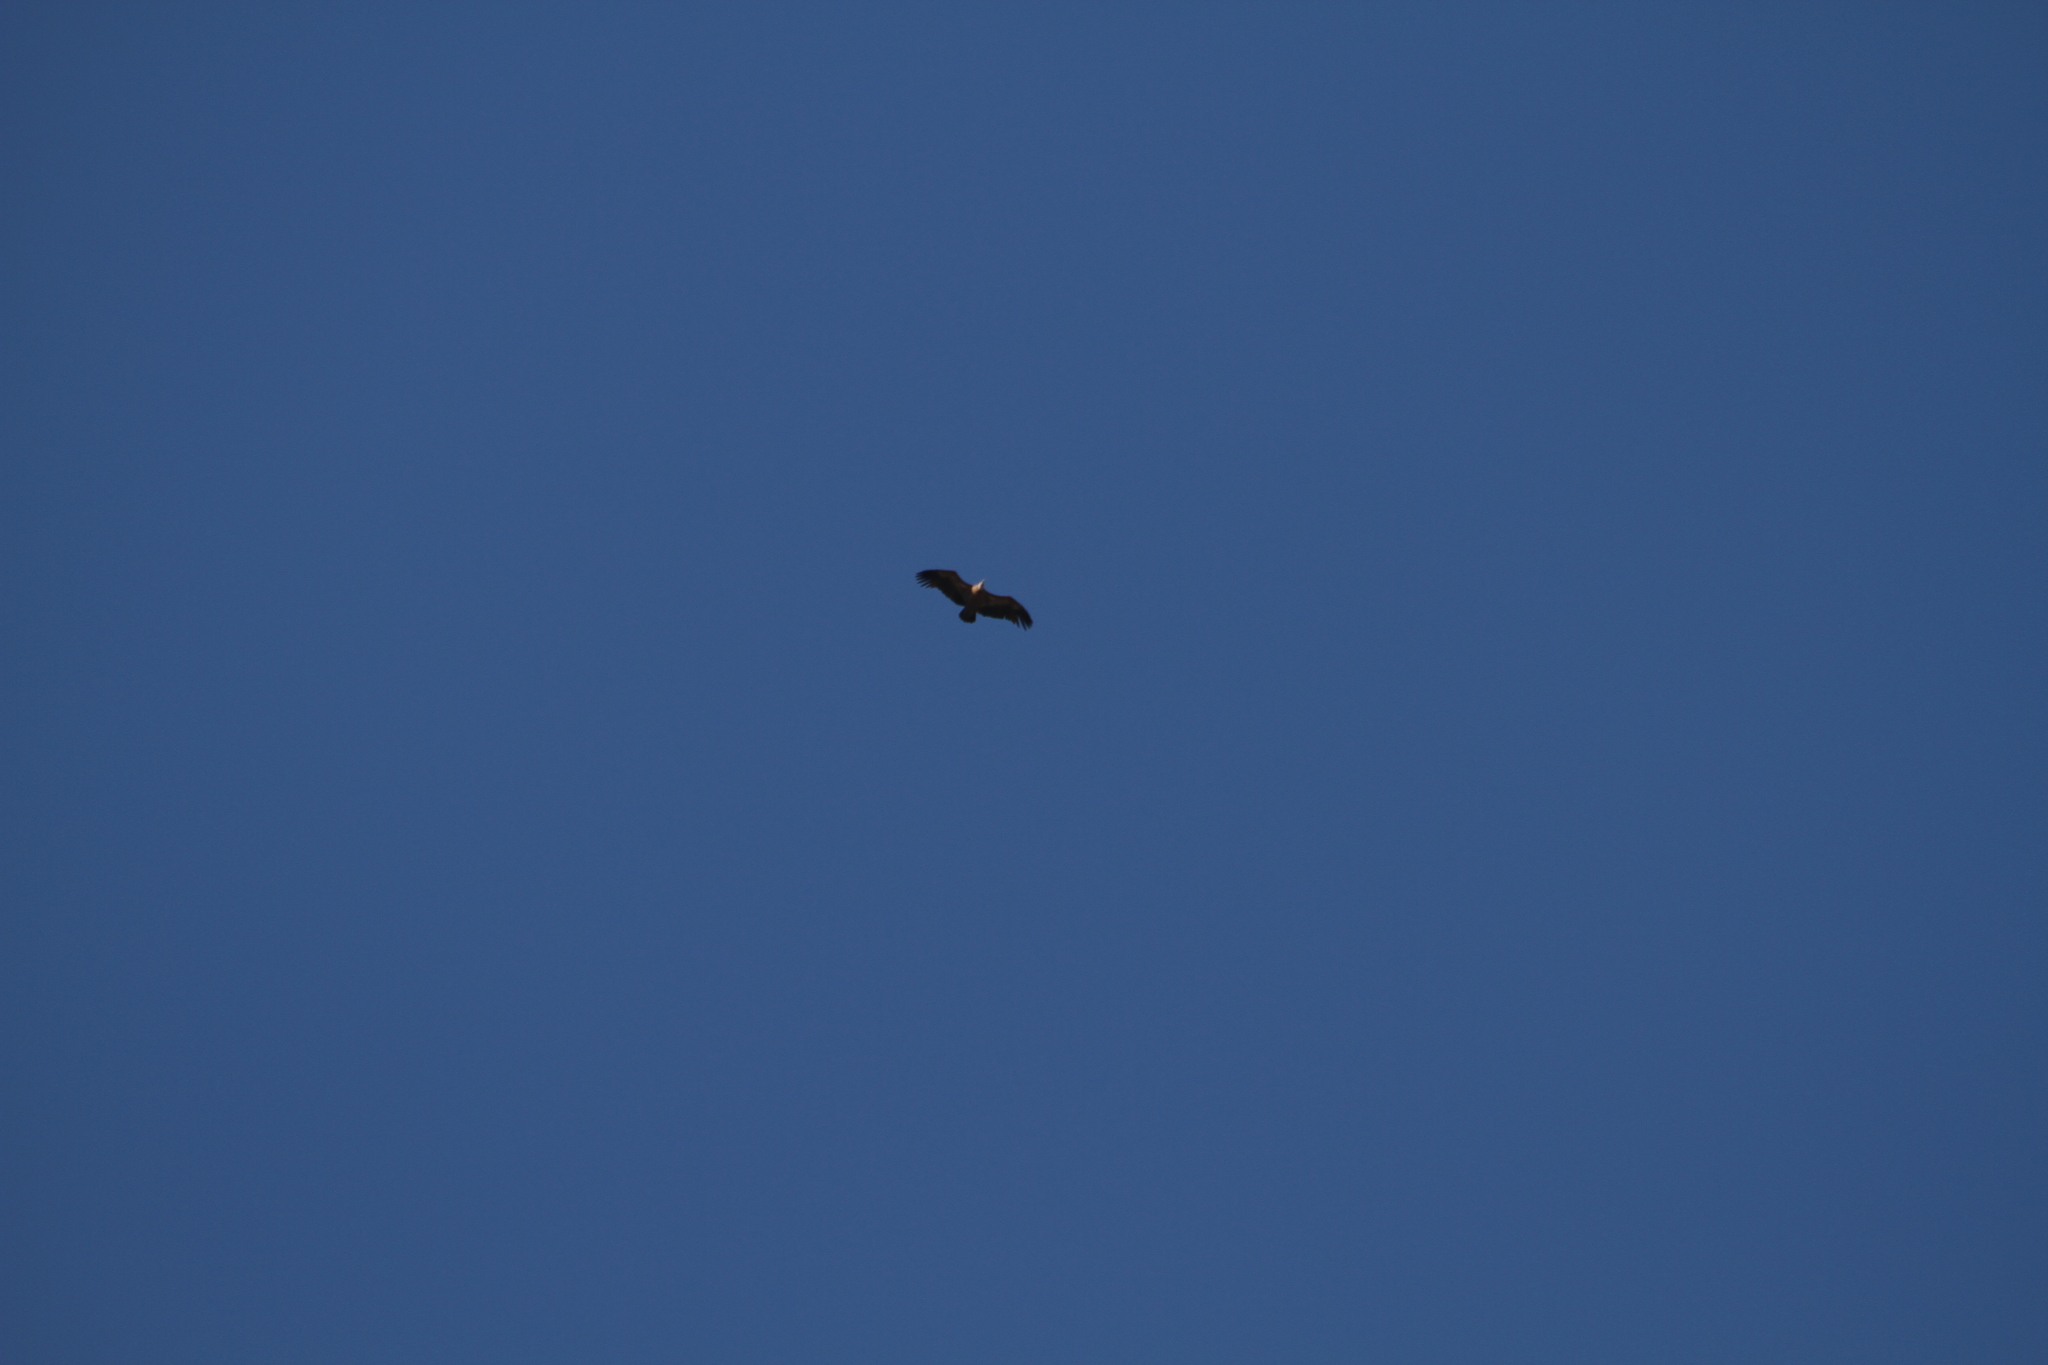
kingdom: Animalia
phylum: Chordata
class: Aves
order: Accipitriformes
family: Accipitridae
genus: Gyps
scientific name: Gyps fulvus
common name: Griffon vulture
